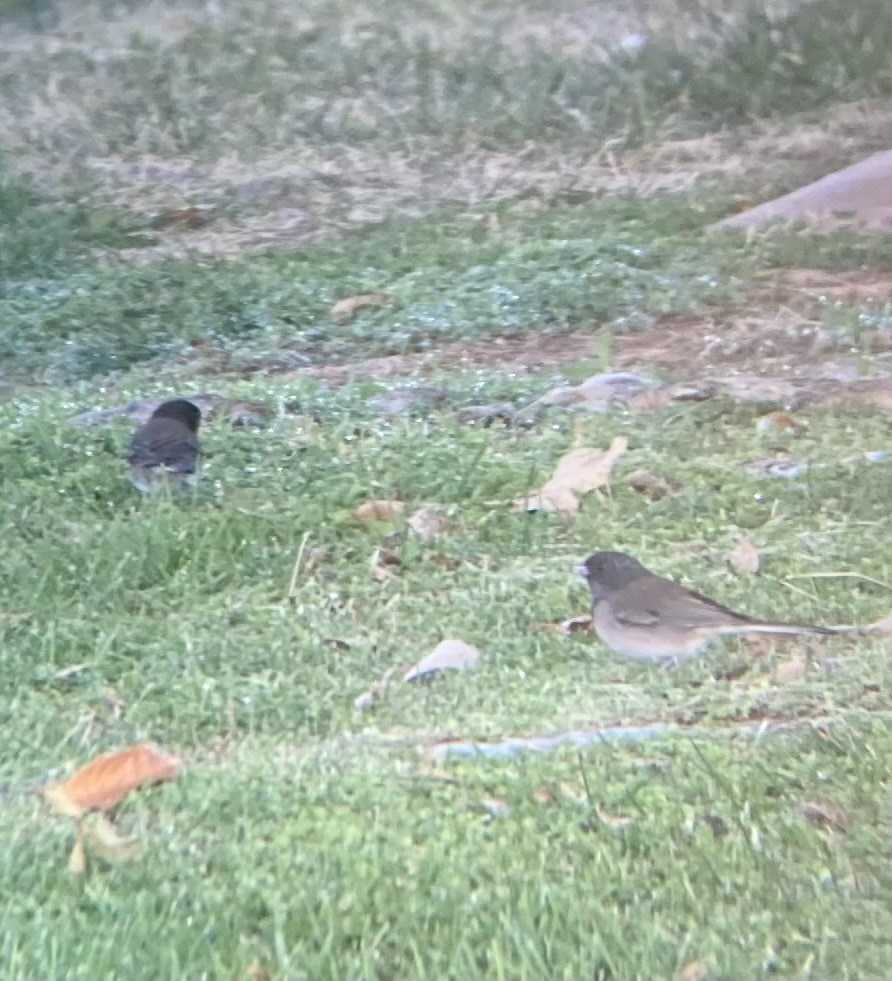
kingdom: Animalia
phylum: Chordata
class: Aves
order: Passeriformes
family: Passerellidae
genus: Junco
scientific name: Junco hyemalis
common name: Dark-eyed junco
